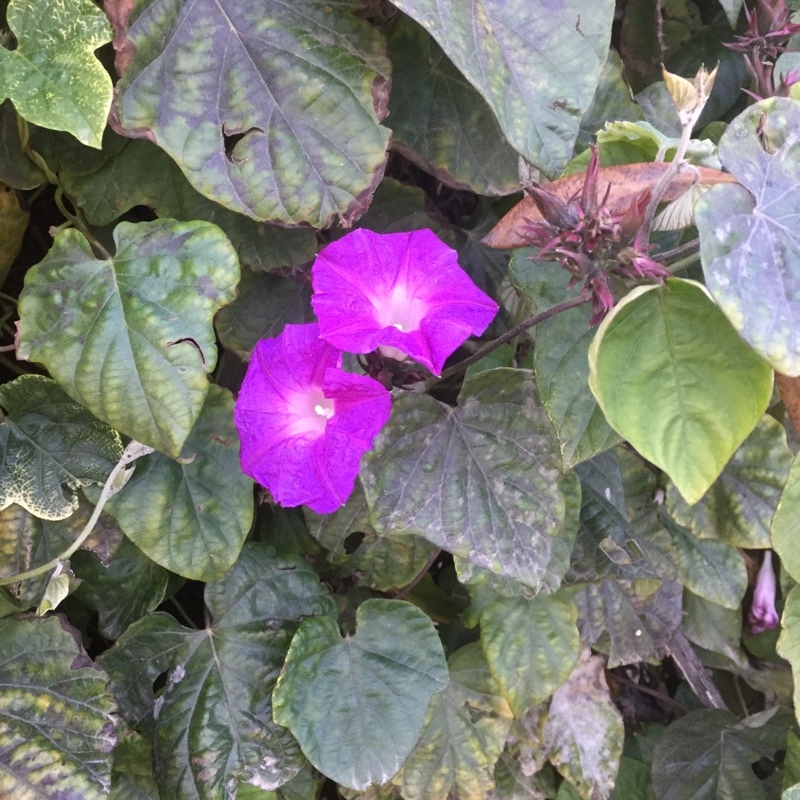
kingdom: Plantae
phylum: Tracheophyta
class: Magnoliopsida
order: Solanales
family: Convolvulaceae
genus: Ipomoea
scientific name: Ipomoea indica
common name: Blue dawnflower
